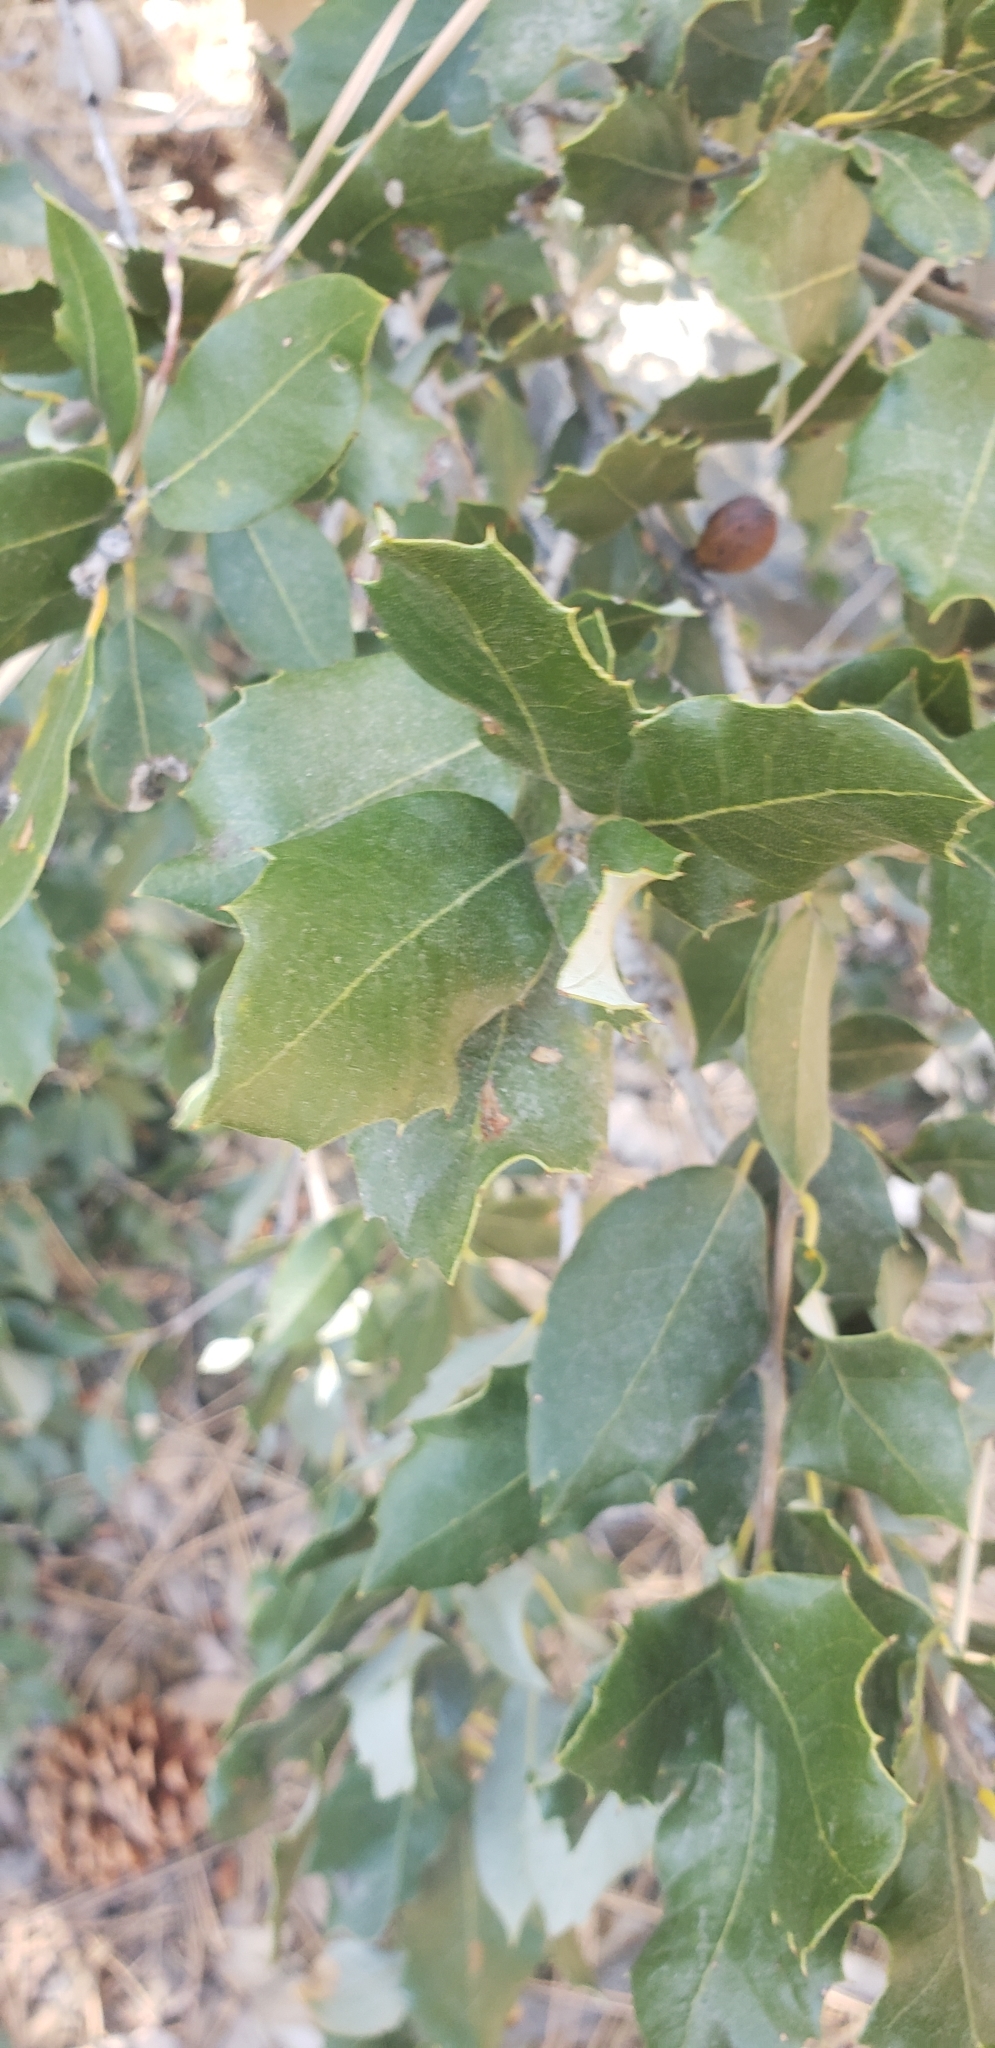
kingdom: Plantae
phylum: Tracheophyta
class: Magnoliopsida
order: Fagales
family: Fagaceae
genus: Quercus
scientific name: Quercus chrysolepis
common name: Canyon live oak
